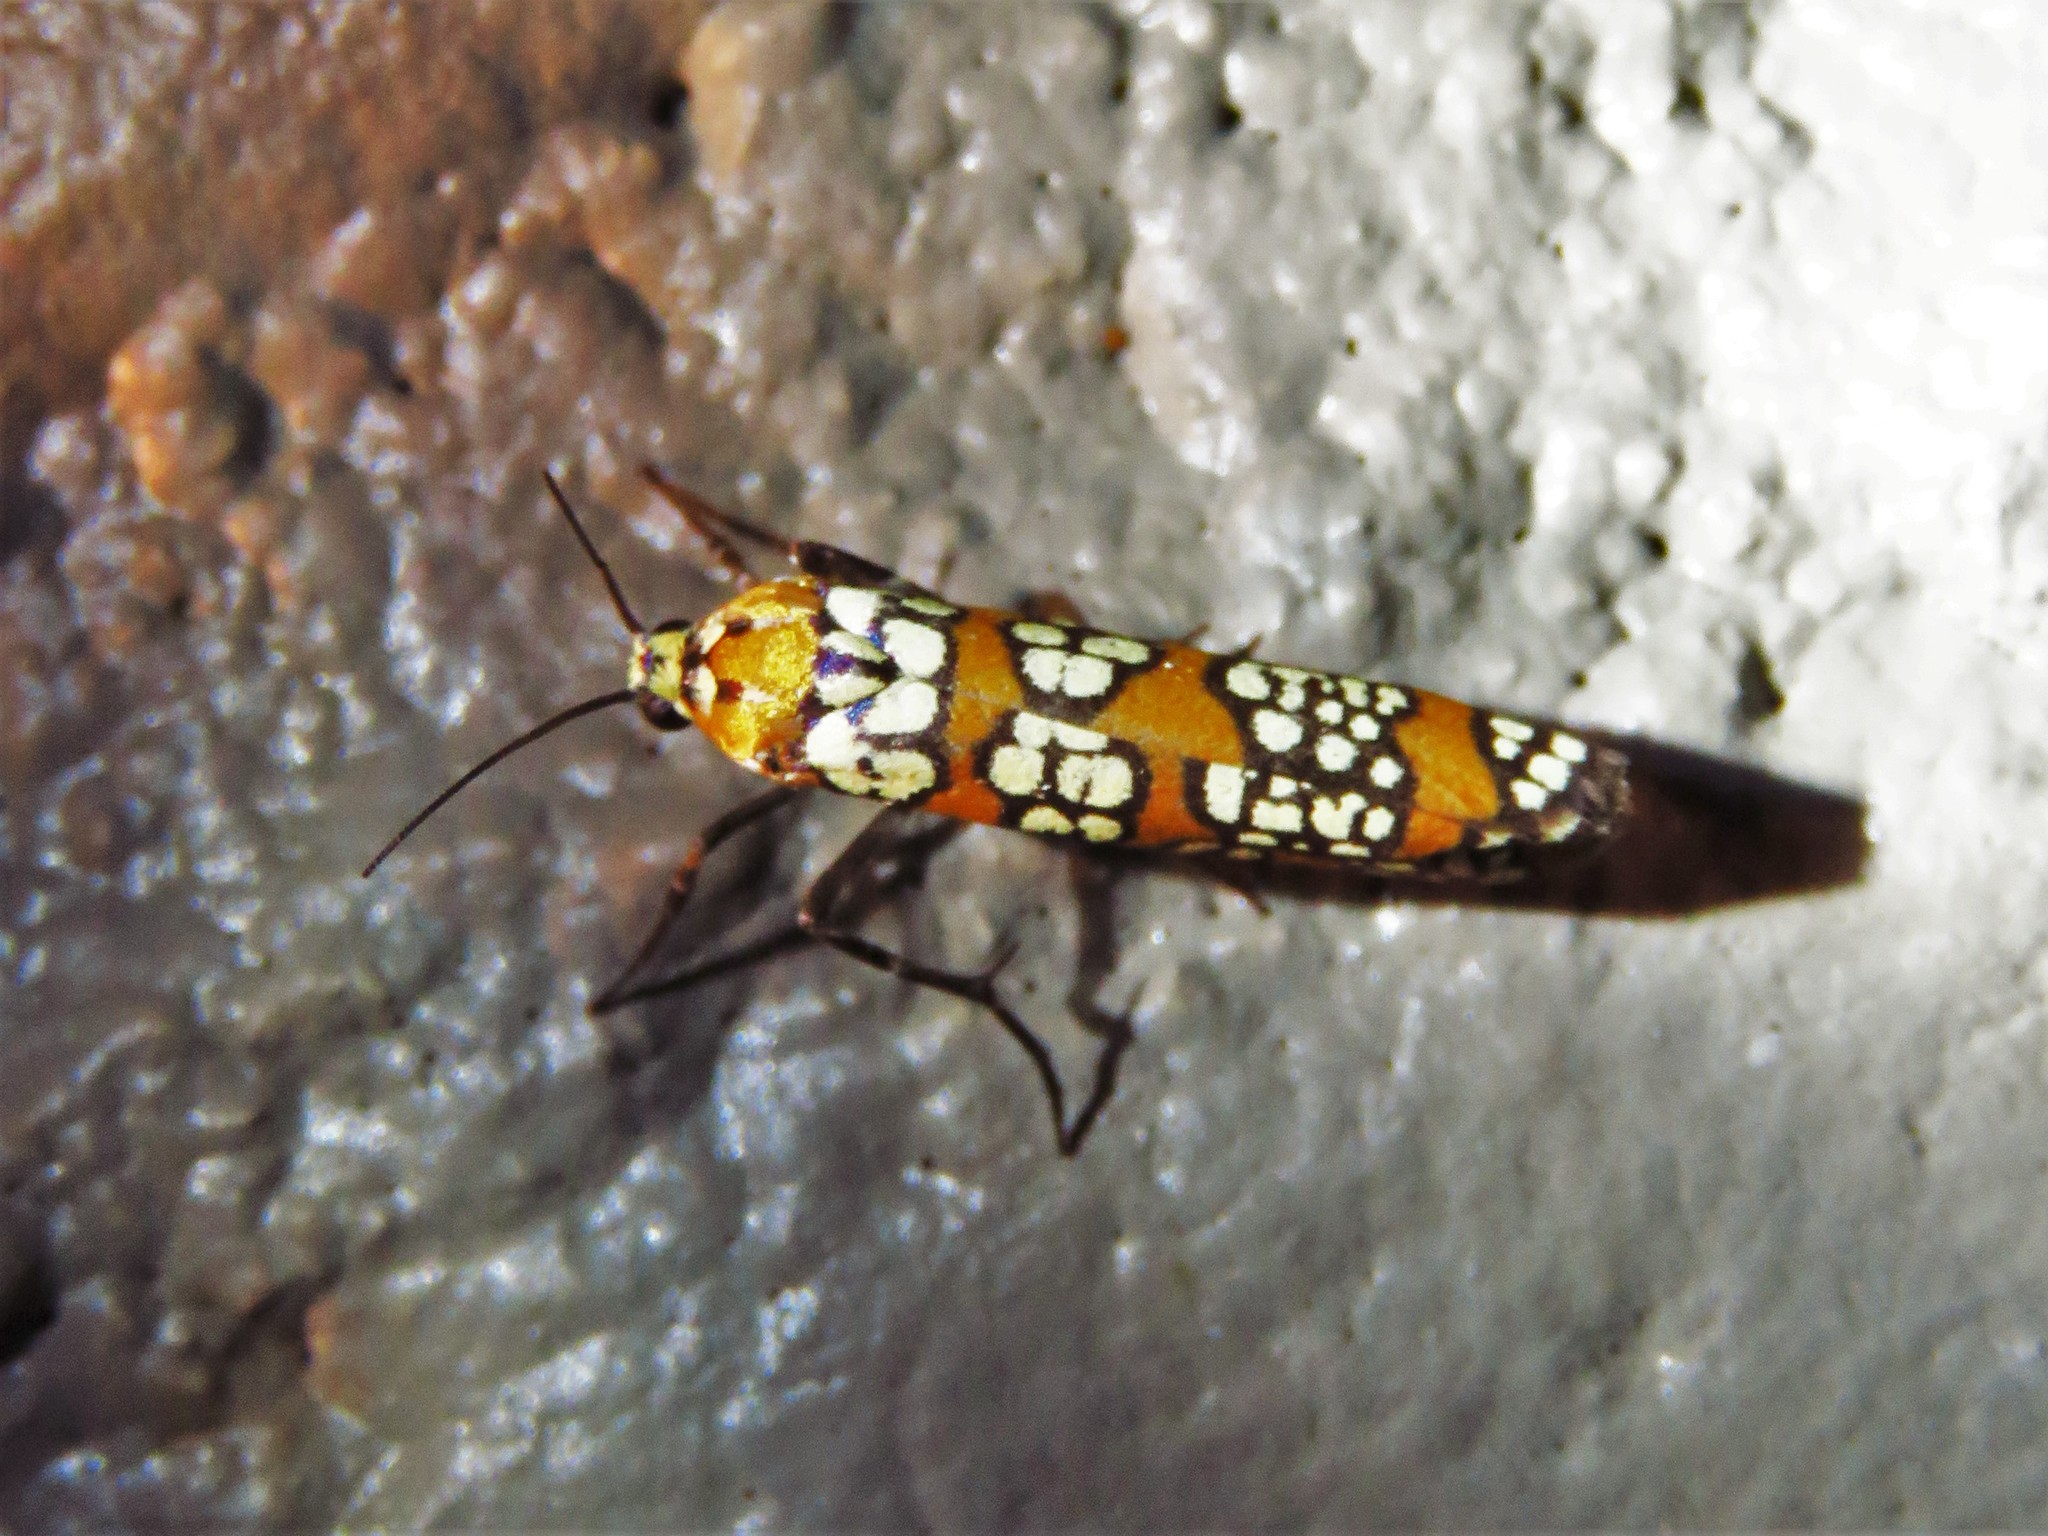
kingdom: Animalia
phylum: Arthropoda
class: Insecta
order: Lepidoptera
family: Attevidae
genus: Atteva
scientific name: Atteva punctella
